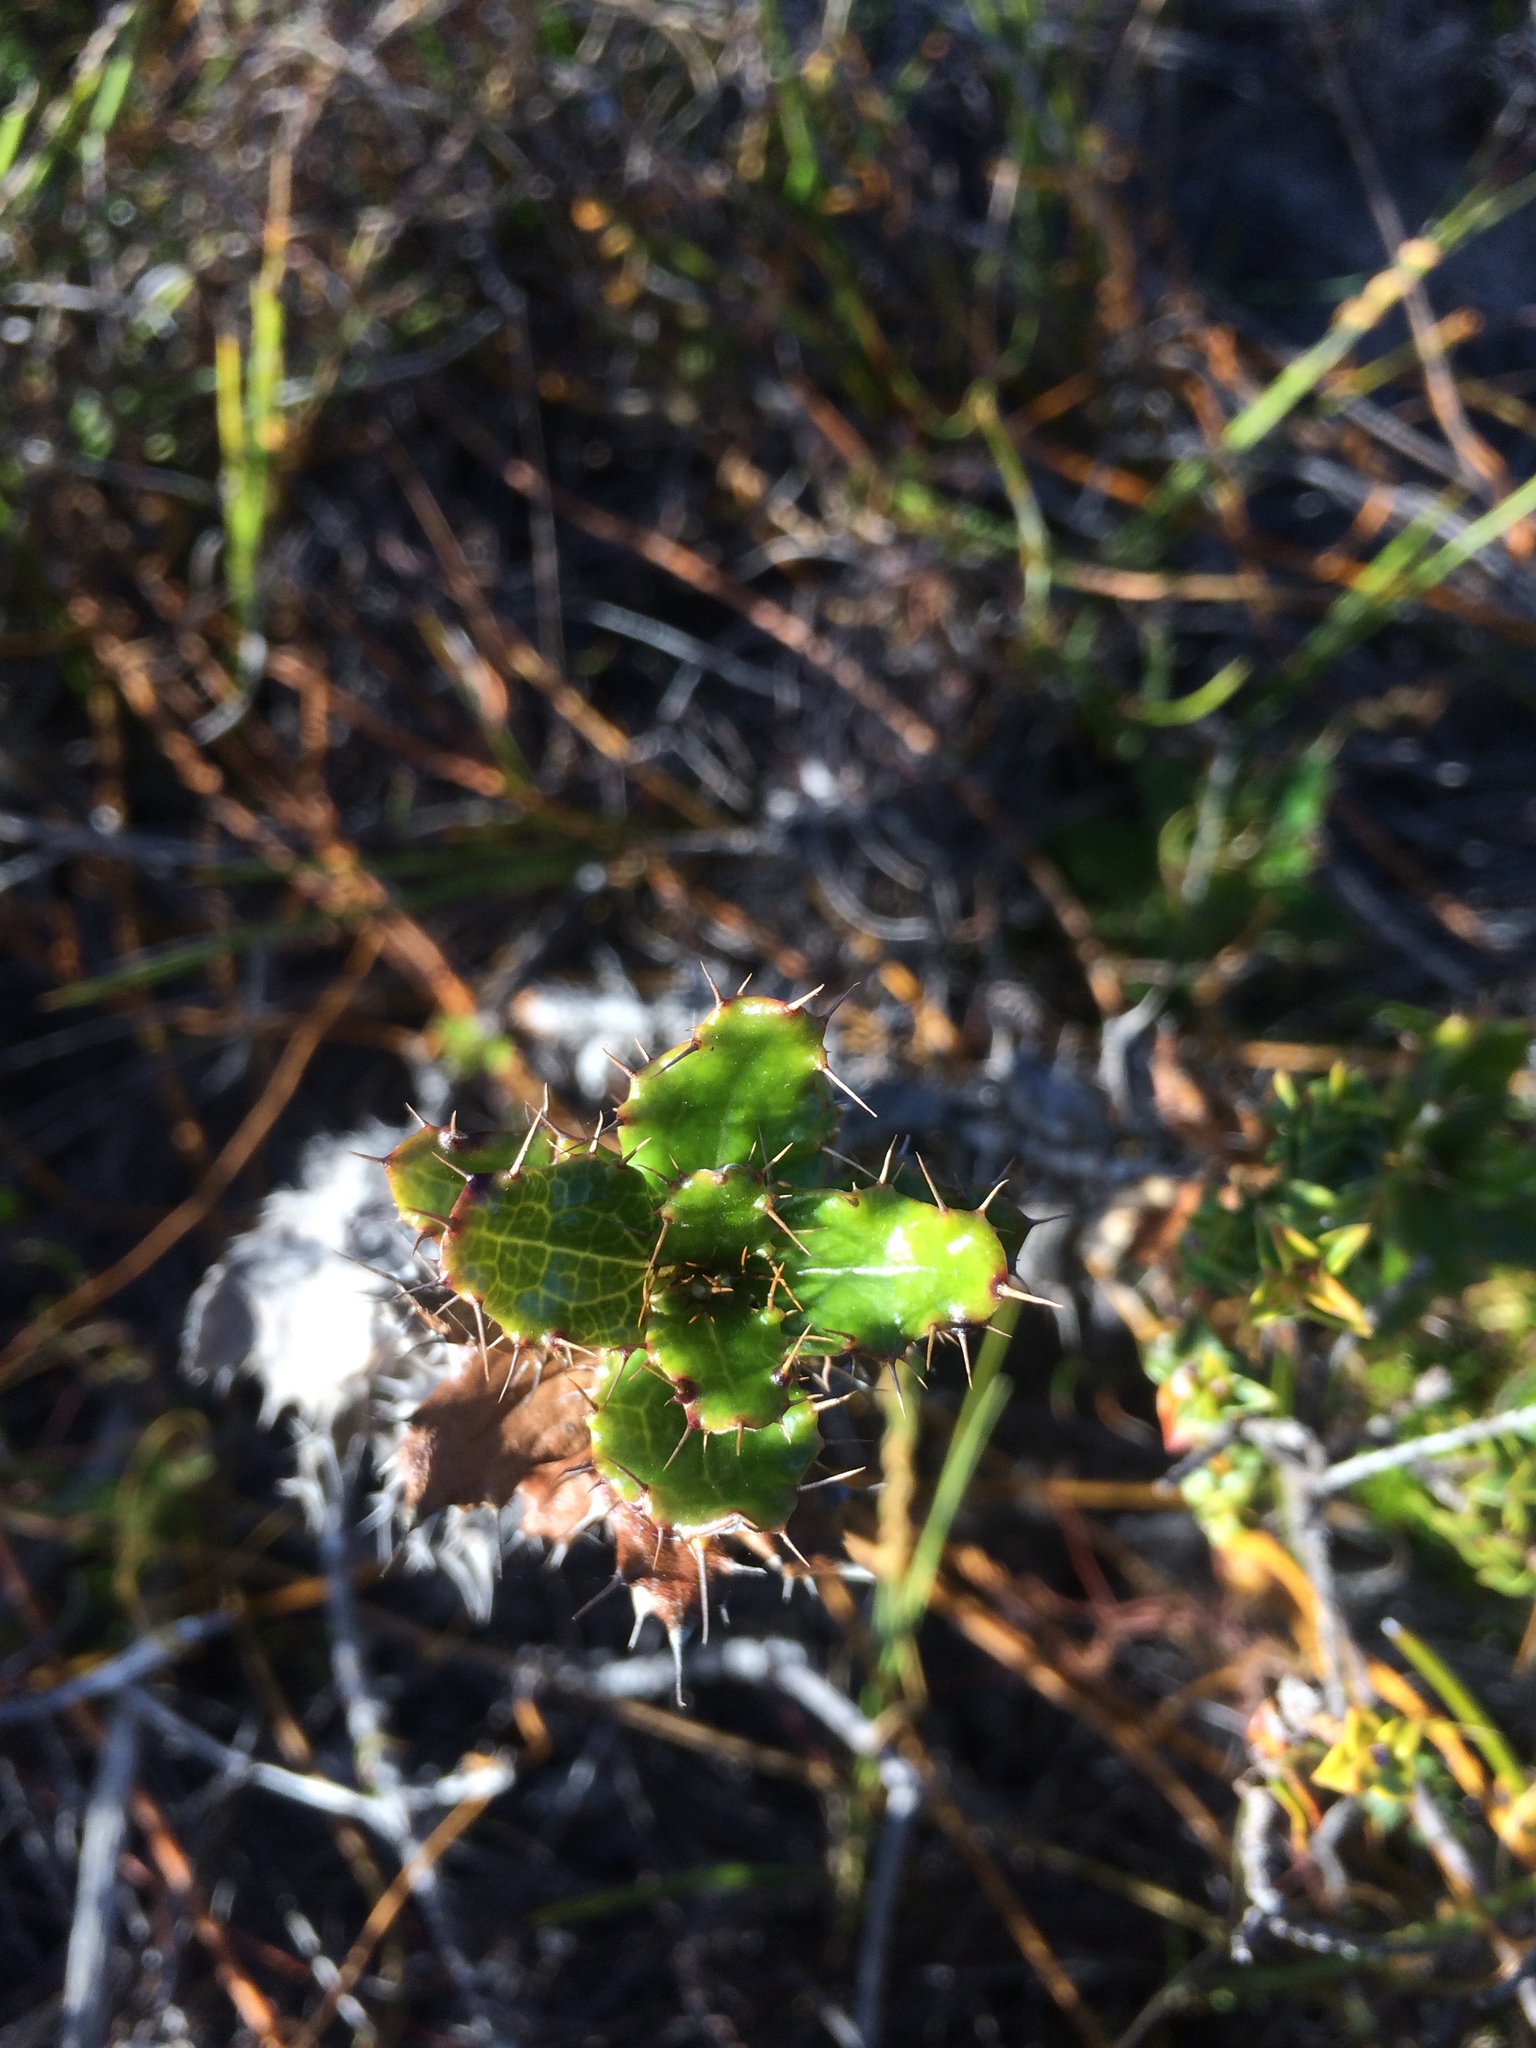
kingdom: Plantae
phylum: Tracheophyta
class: Magnoliopsida
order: Asterales
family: Asteraceae
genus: Berkheya
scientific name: Berkheya barbata
